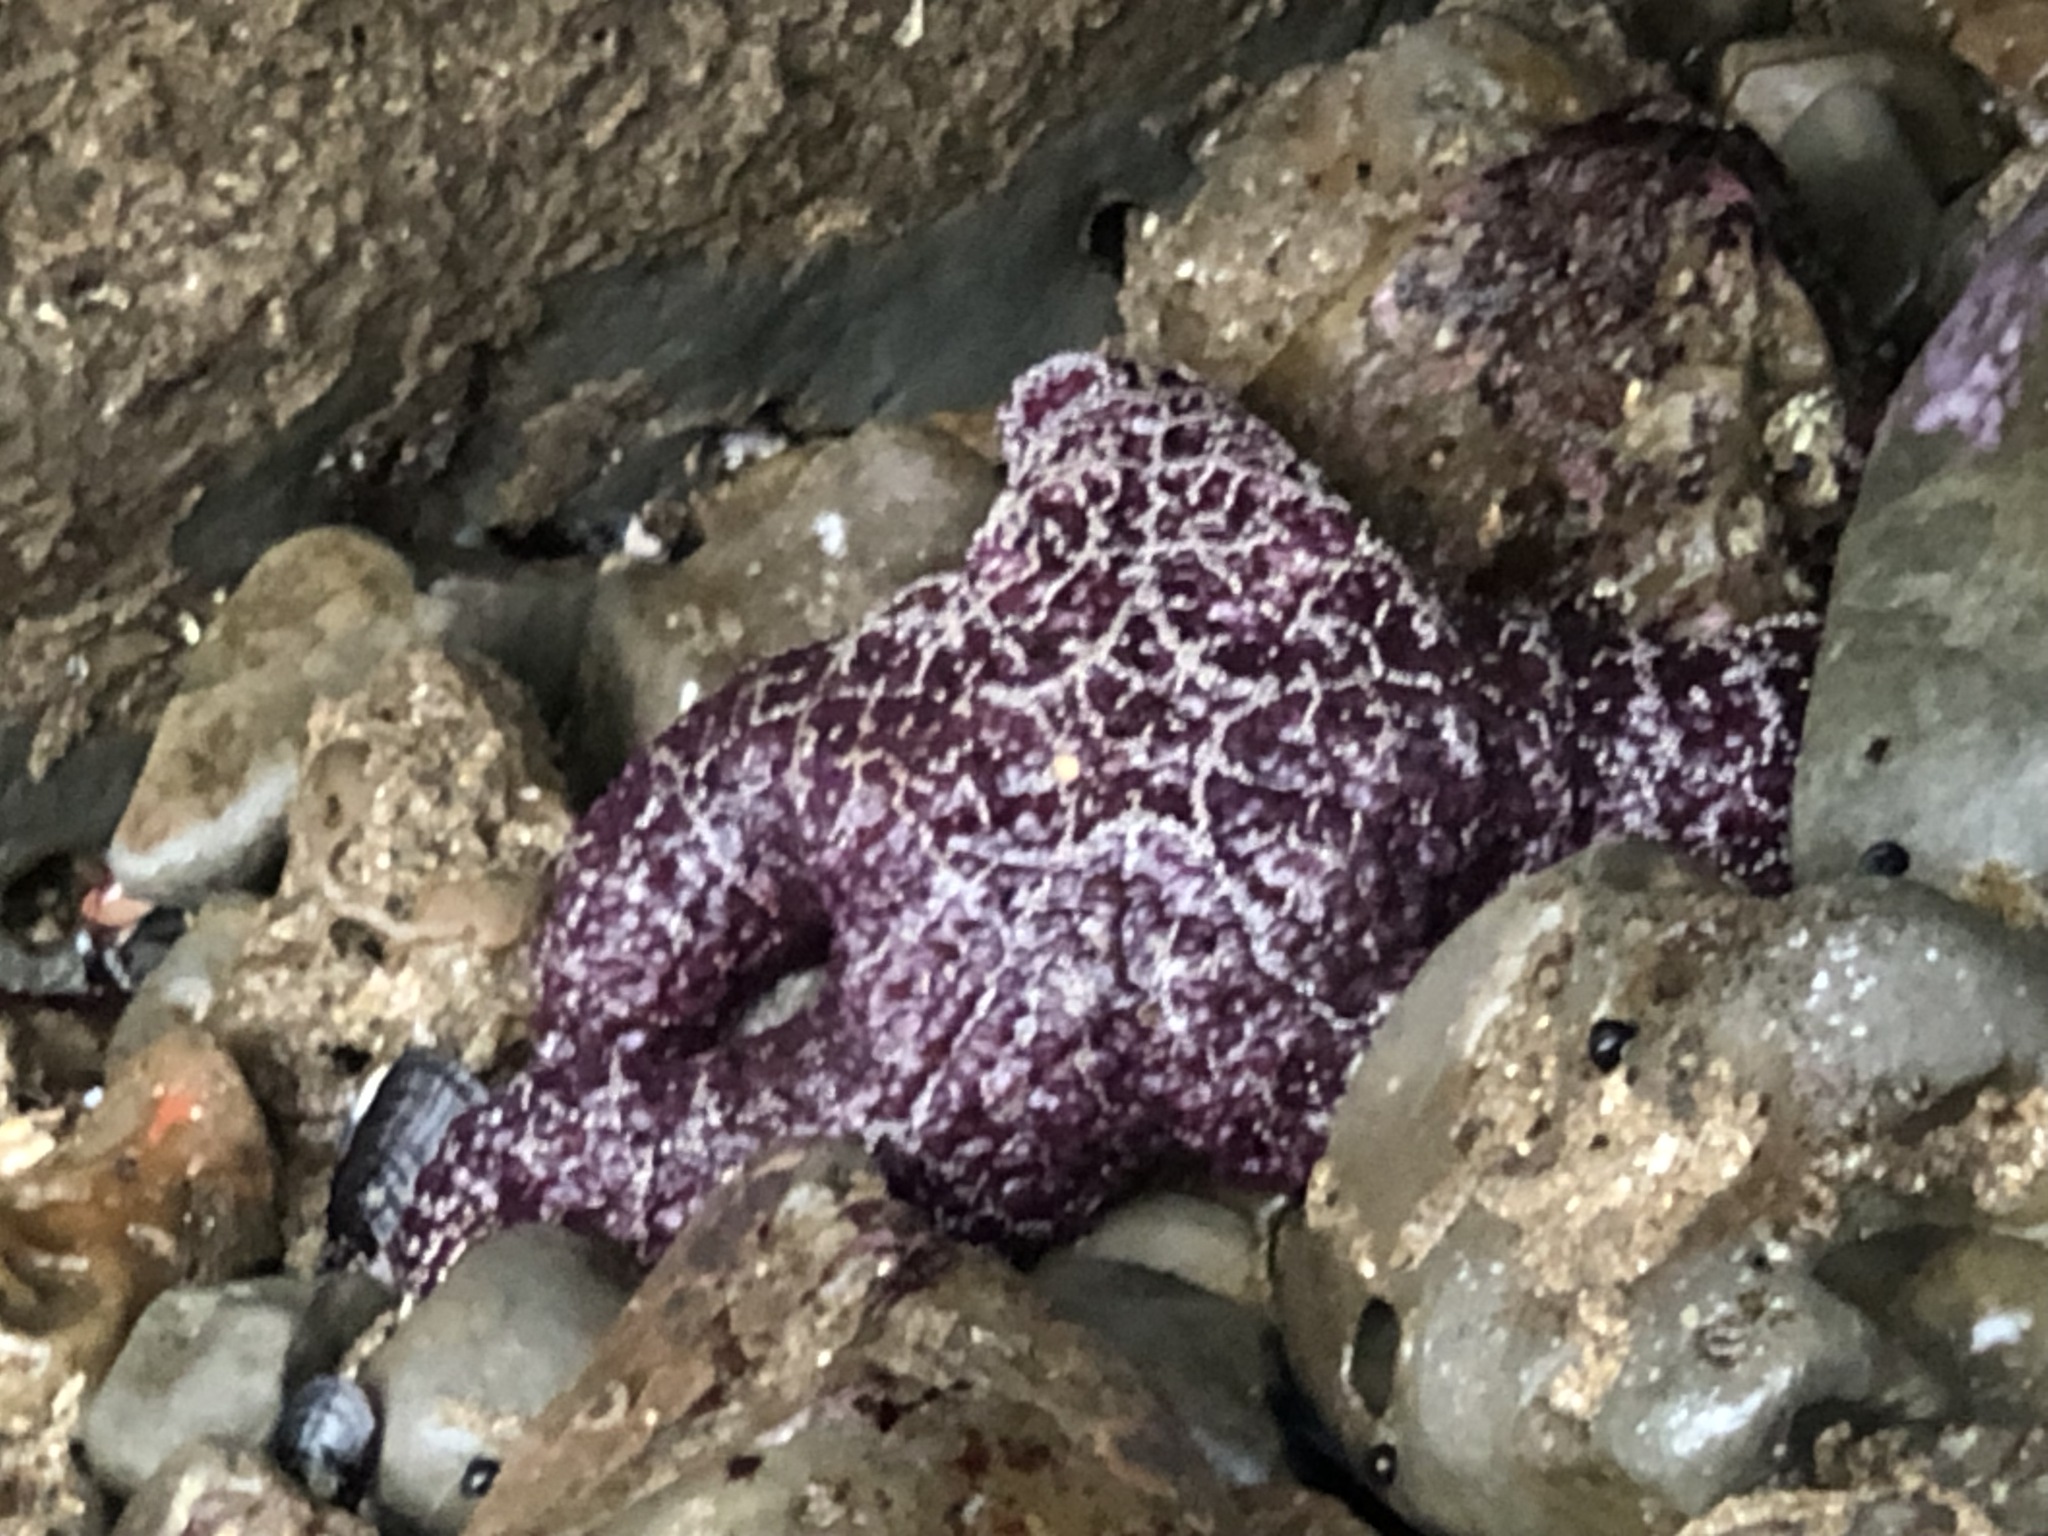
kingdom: Animalia
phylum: Echinodermata
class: Asteroidea
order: Forcipulatida
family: Asteriidae
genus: Pisaster
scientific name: Pisaster ochraceus
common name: Ochre stars
